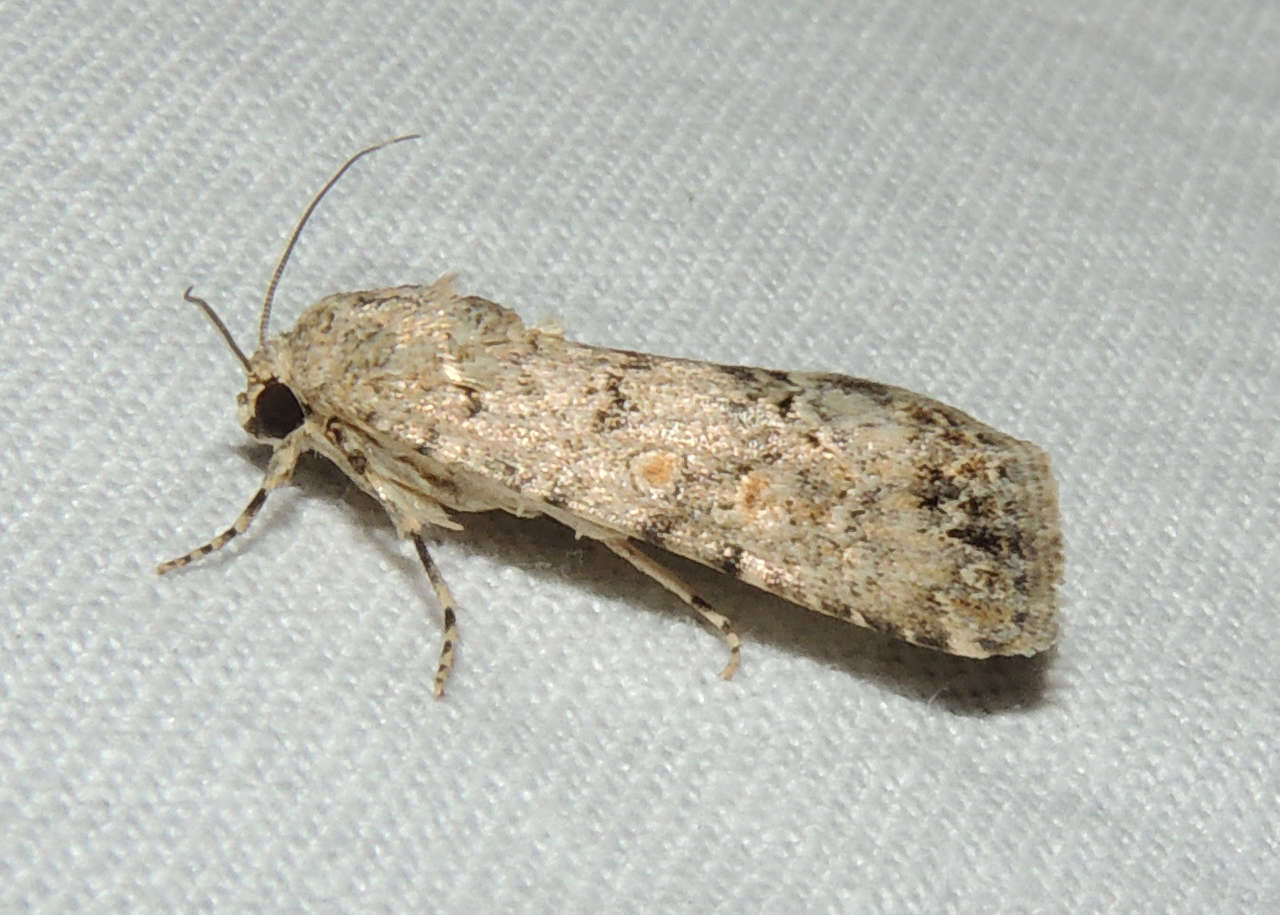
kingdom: Animalia
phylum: Arthropoda
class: Insecta
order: Lepidoptera
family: Noctuidae
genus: Spodoptera
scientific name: Spodoptera exigua
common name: Beet armyworm
